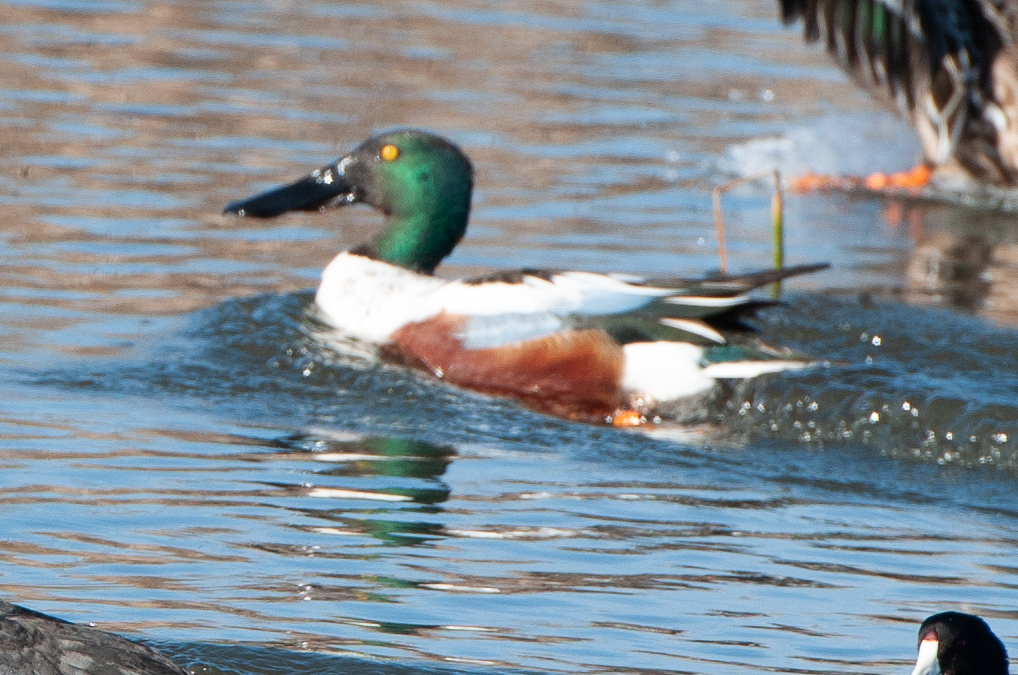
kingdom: Animalia
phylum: Chordata
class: Aves
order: Anseriformes
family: Anatidae
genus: Spatula
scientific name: Spatula clypeata
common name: Northern shoveler
